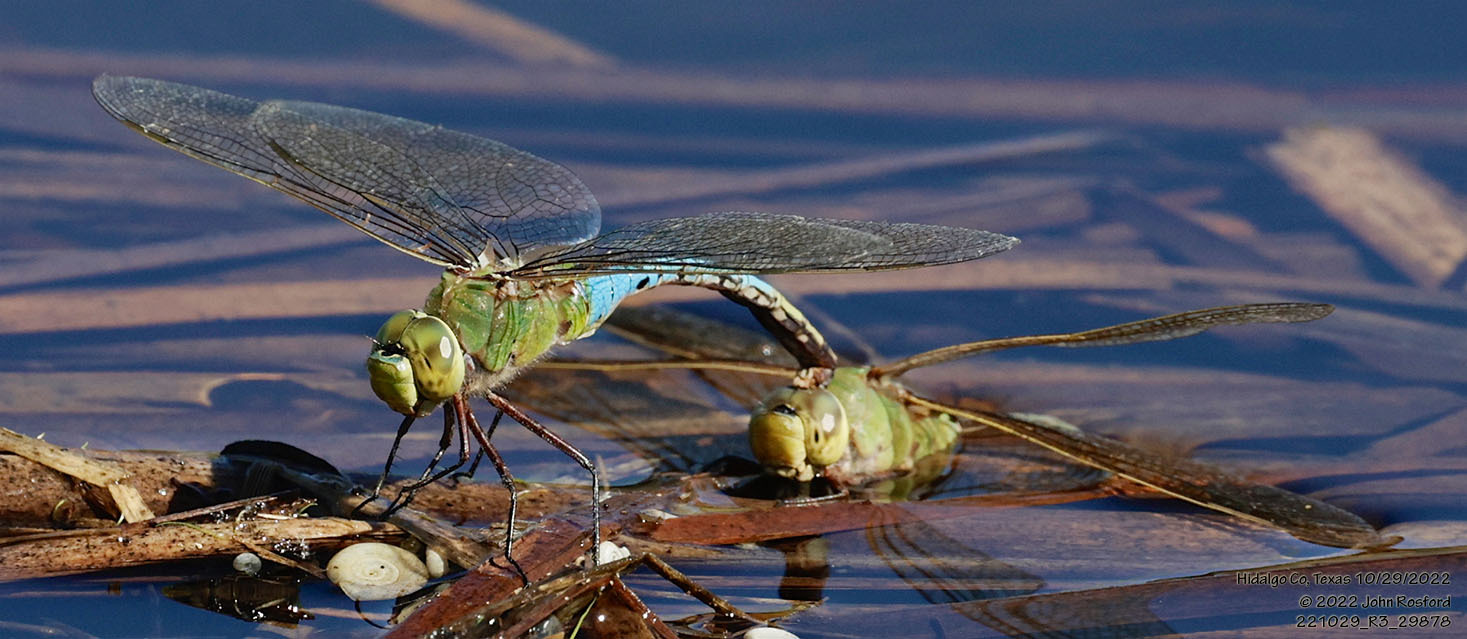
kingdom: Animalia
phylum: Arthropoda
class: Insecta
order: Odonata
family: Aeshnidae
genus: Anax
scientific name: Anax junius
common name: Common green darner
